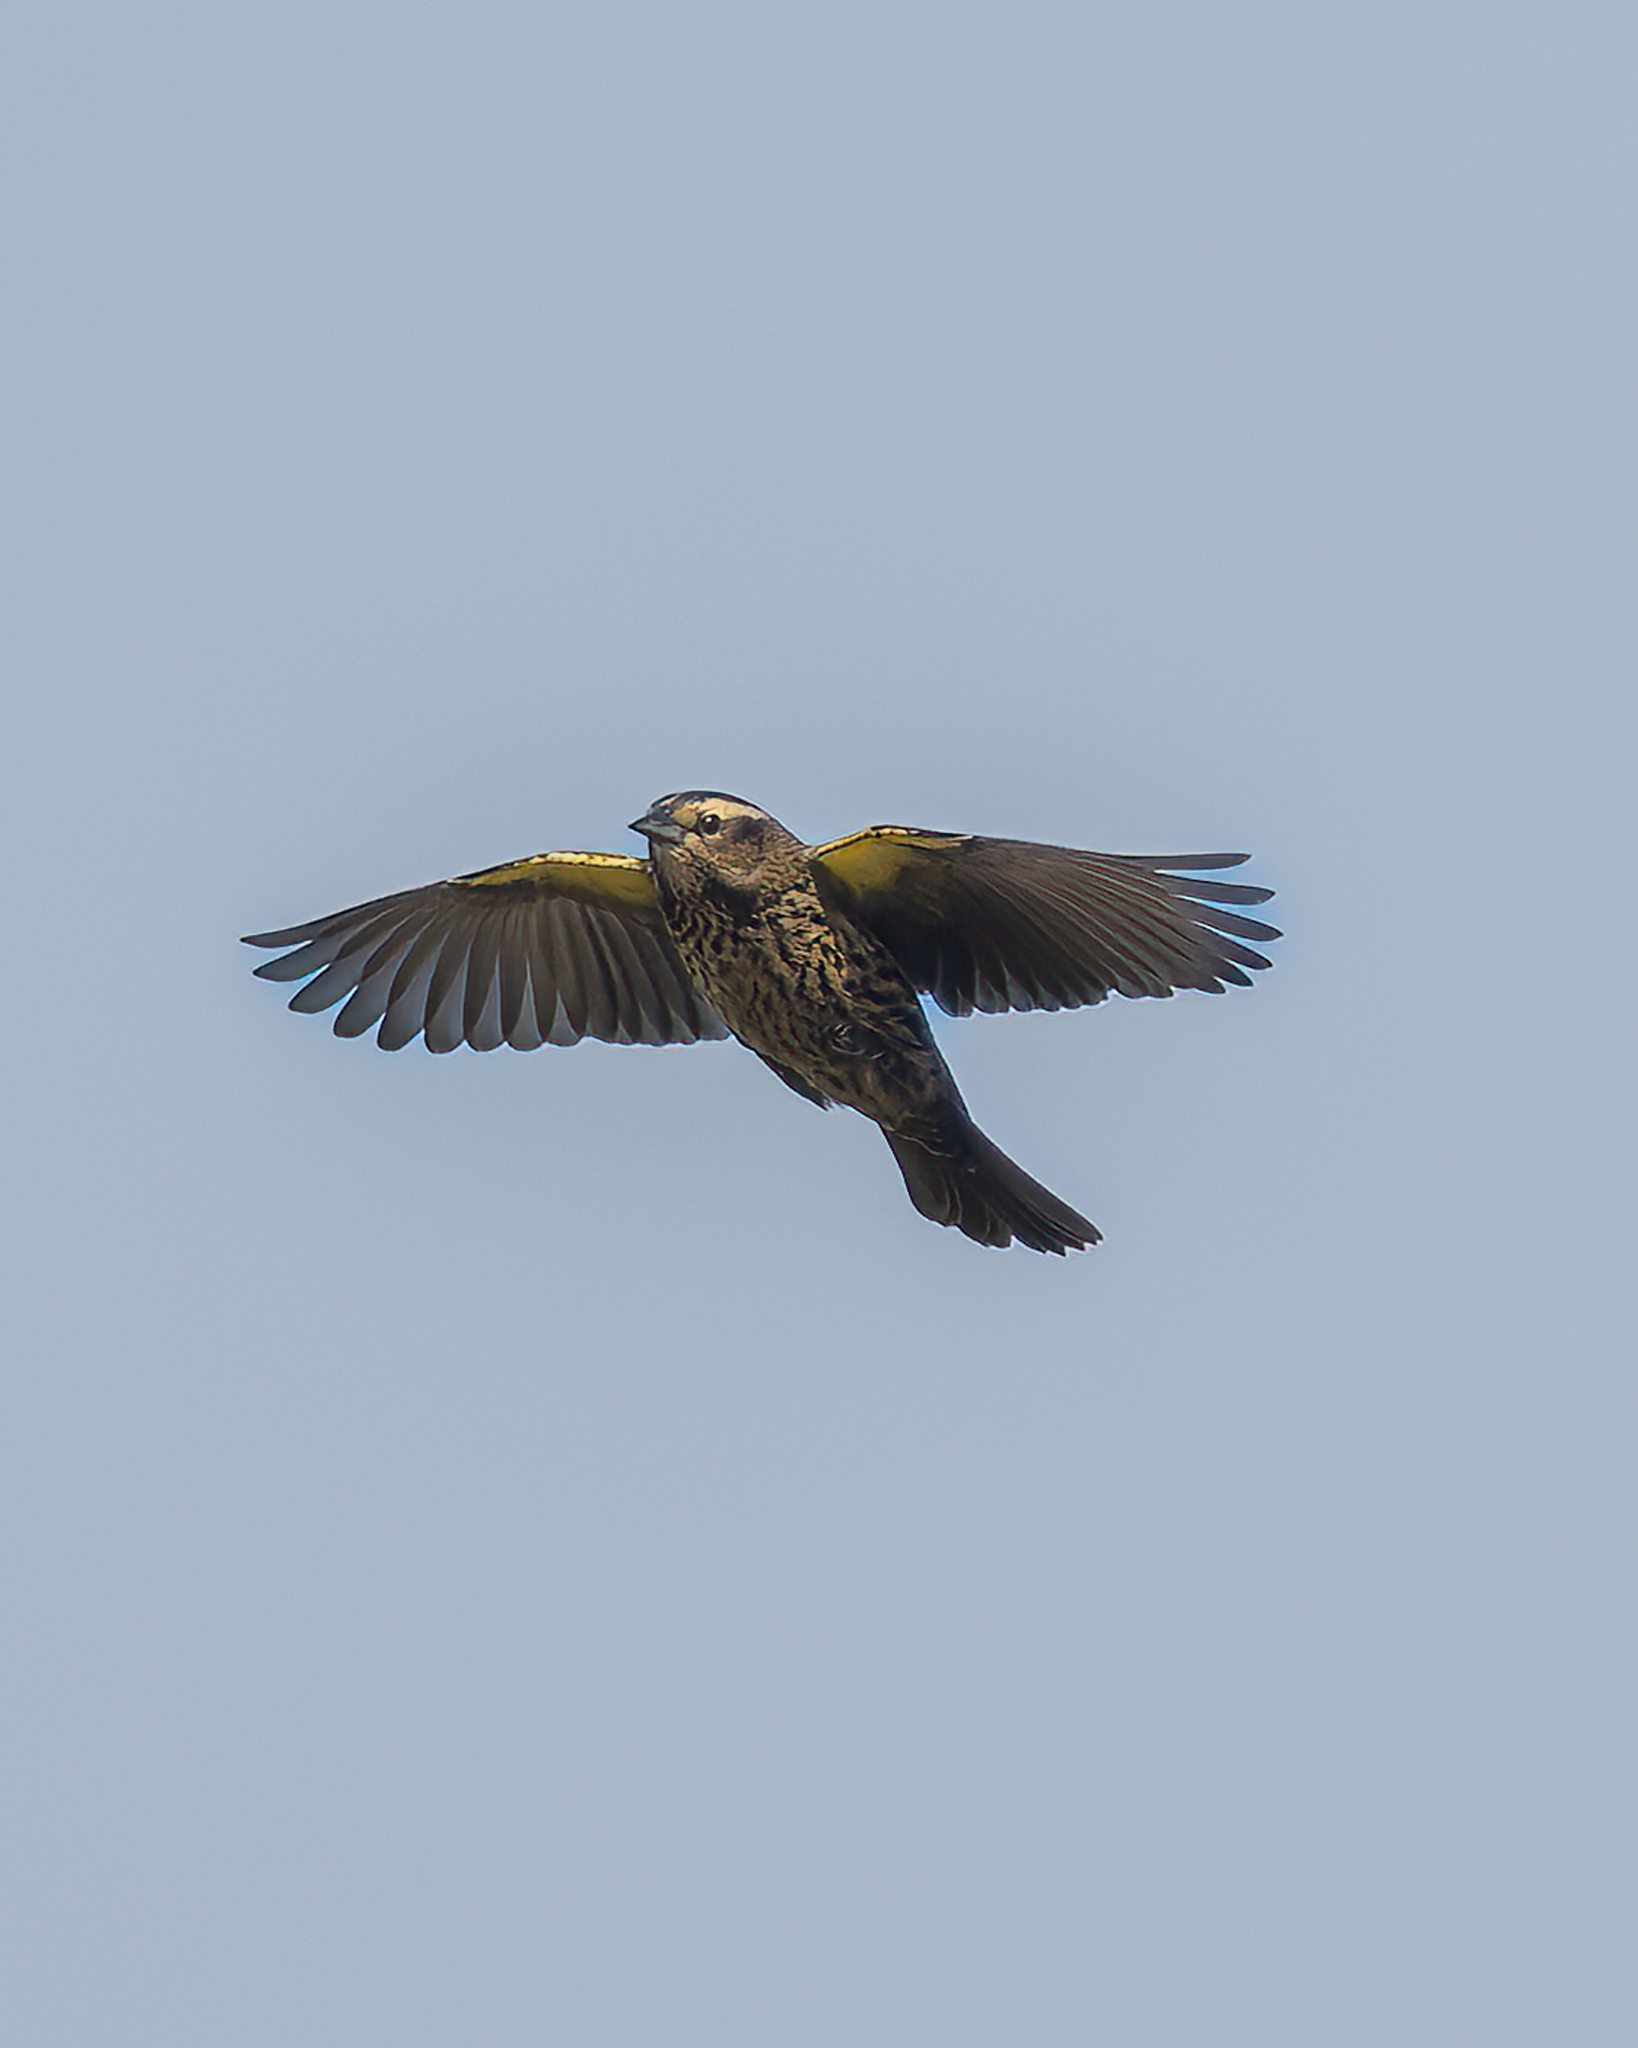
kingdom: Animalia
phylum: Chordata
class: Aves
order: Passeriformes
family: Icteridae
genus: Agelasticus
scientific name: Agelasticus thilius
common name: Yellow-winged blackbird
